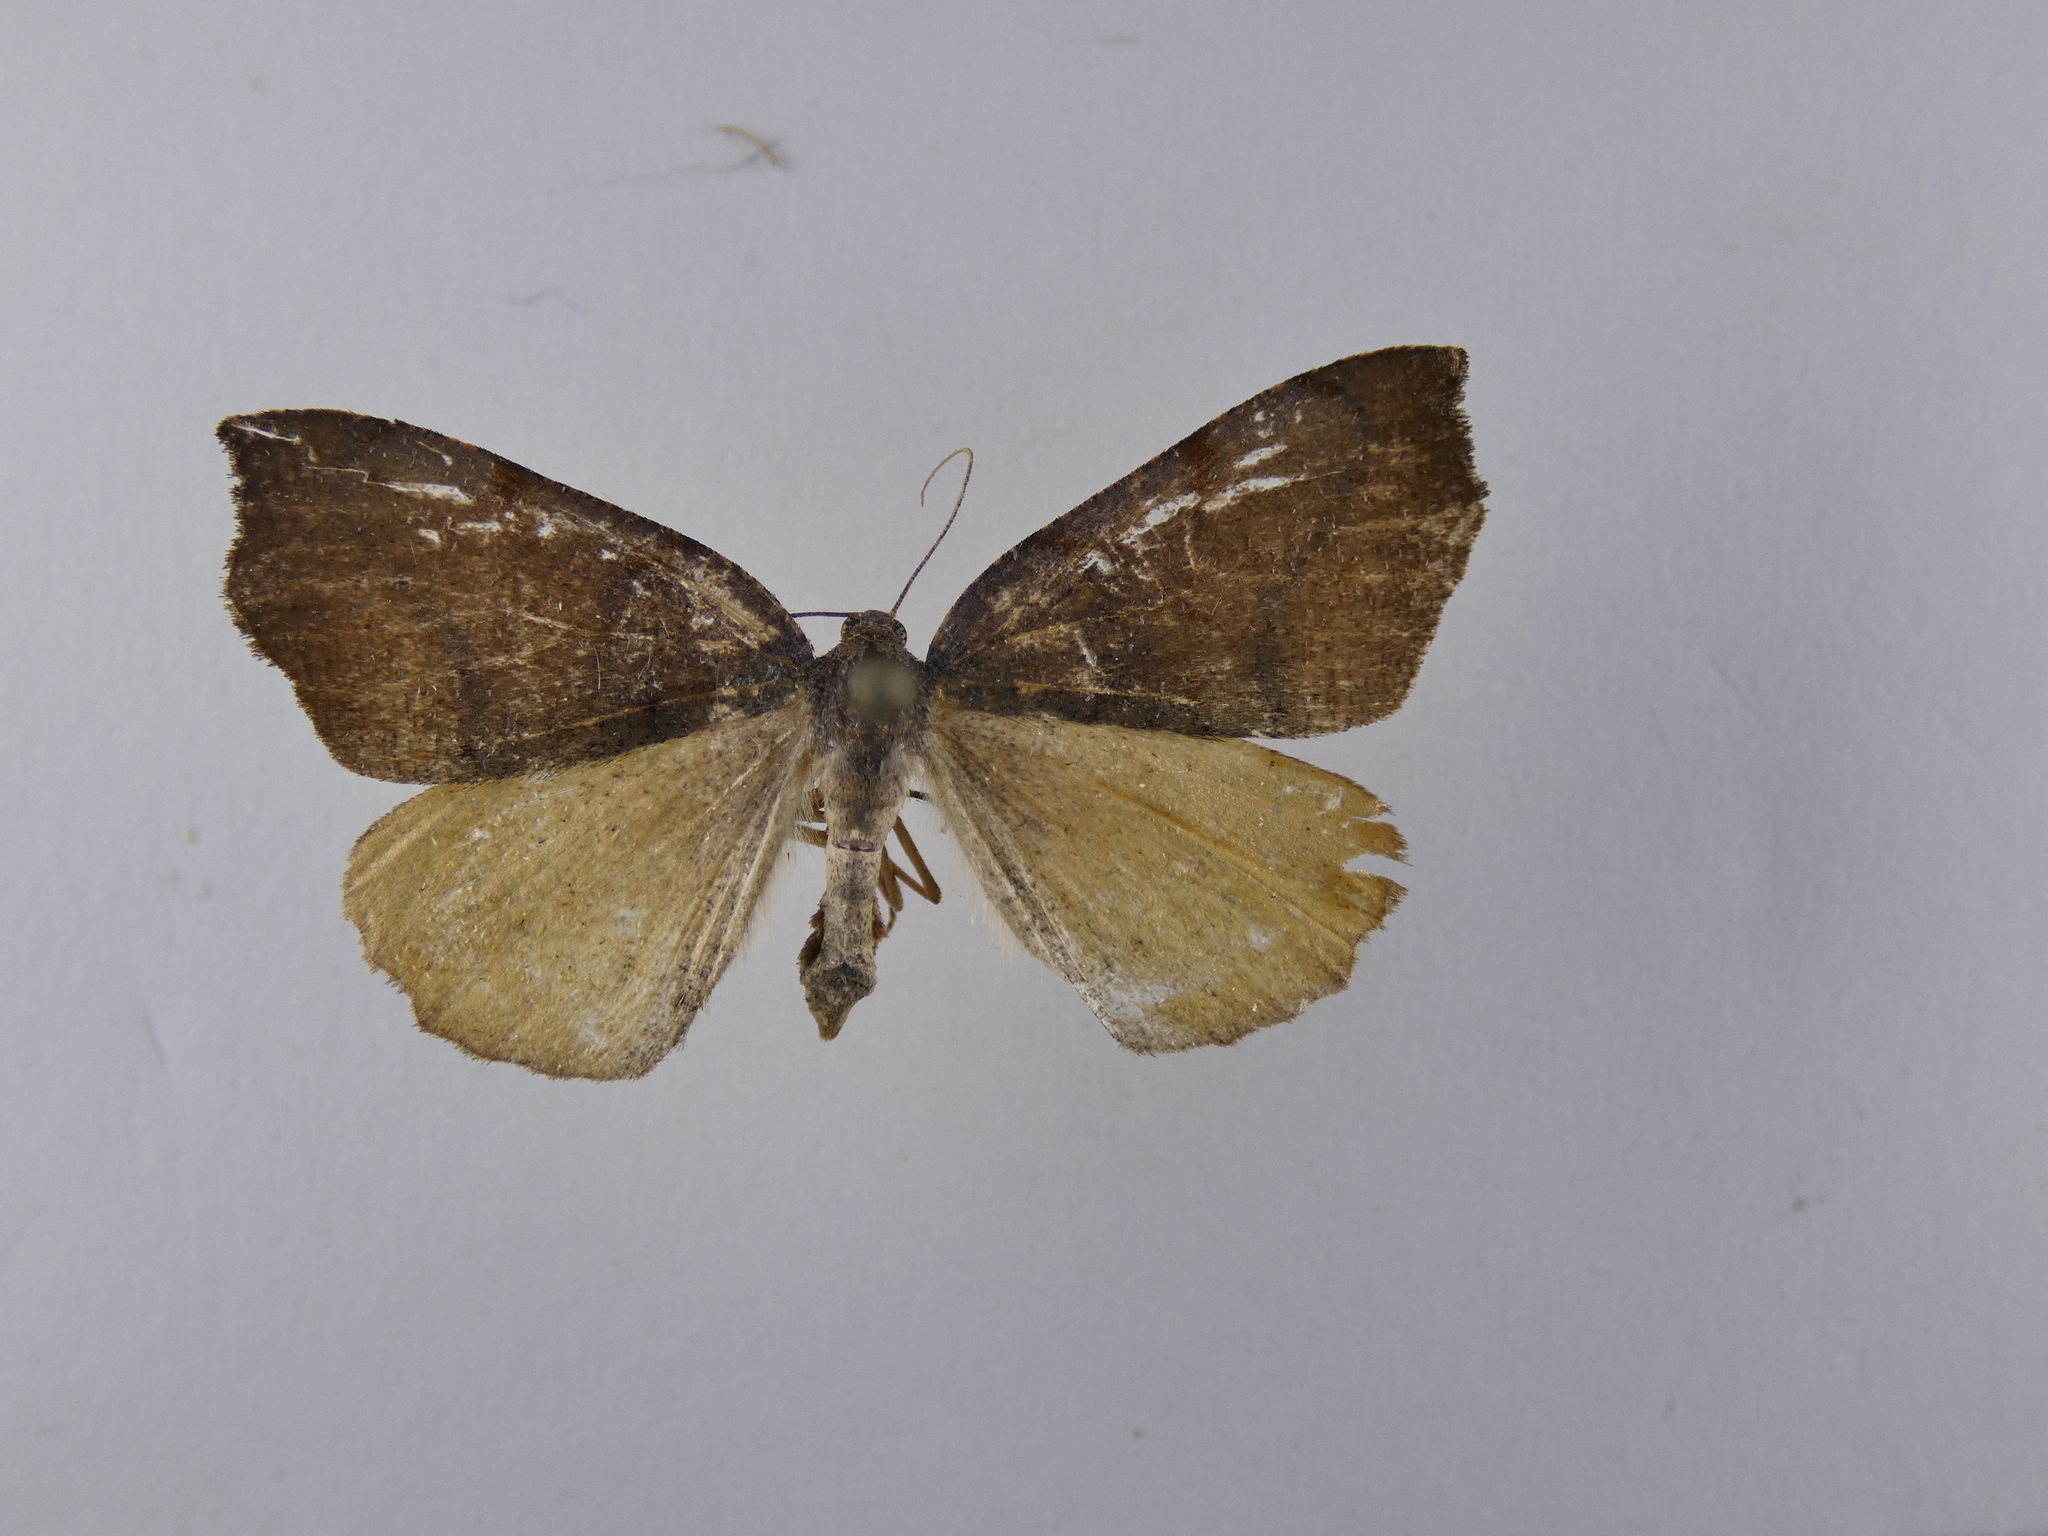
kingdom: Animalia
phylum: Arthropoda
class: Insecta
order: Lepidoptera
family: Geometridae
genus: Sestra
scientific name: Sestra flexata
